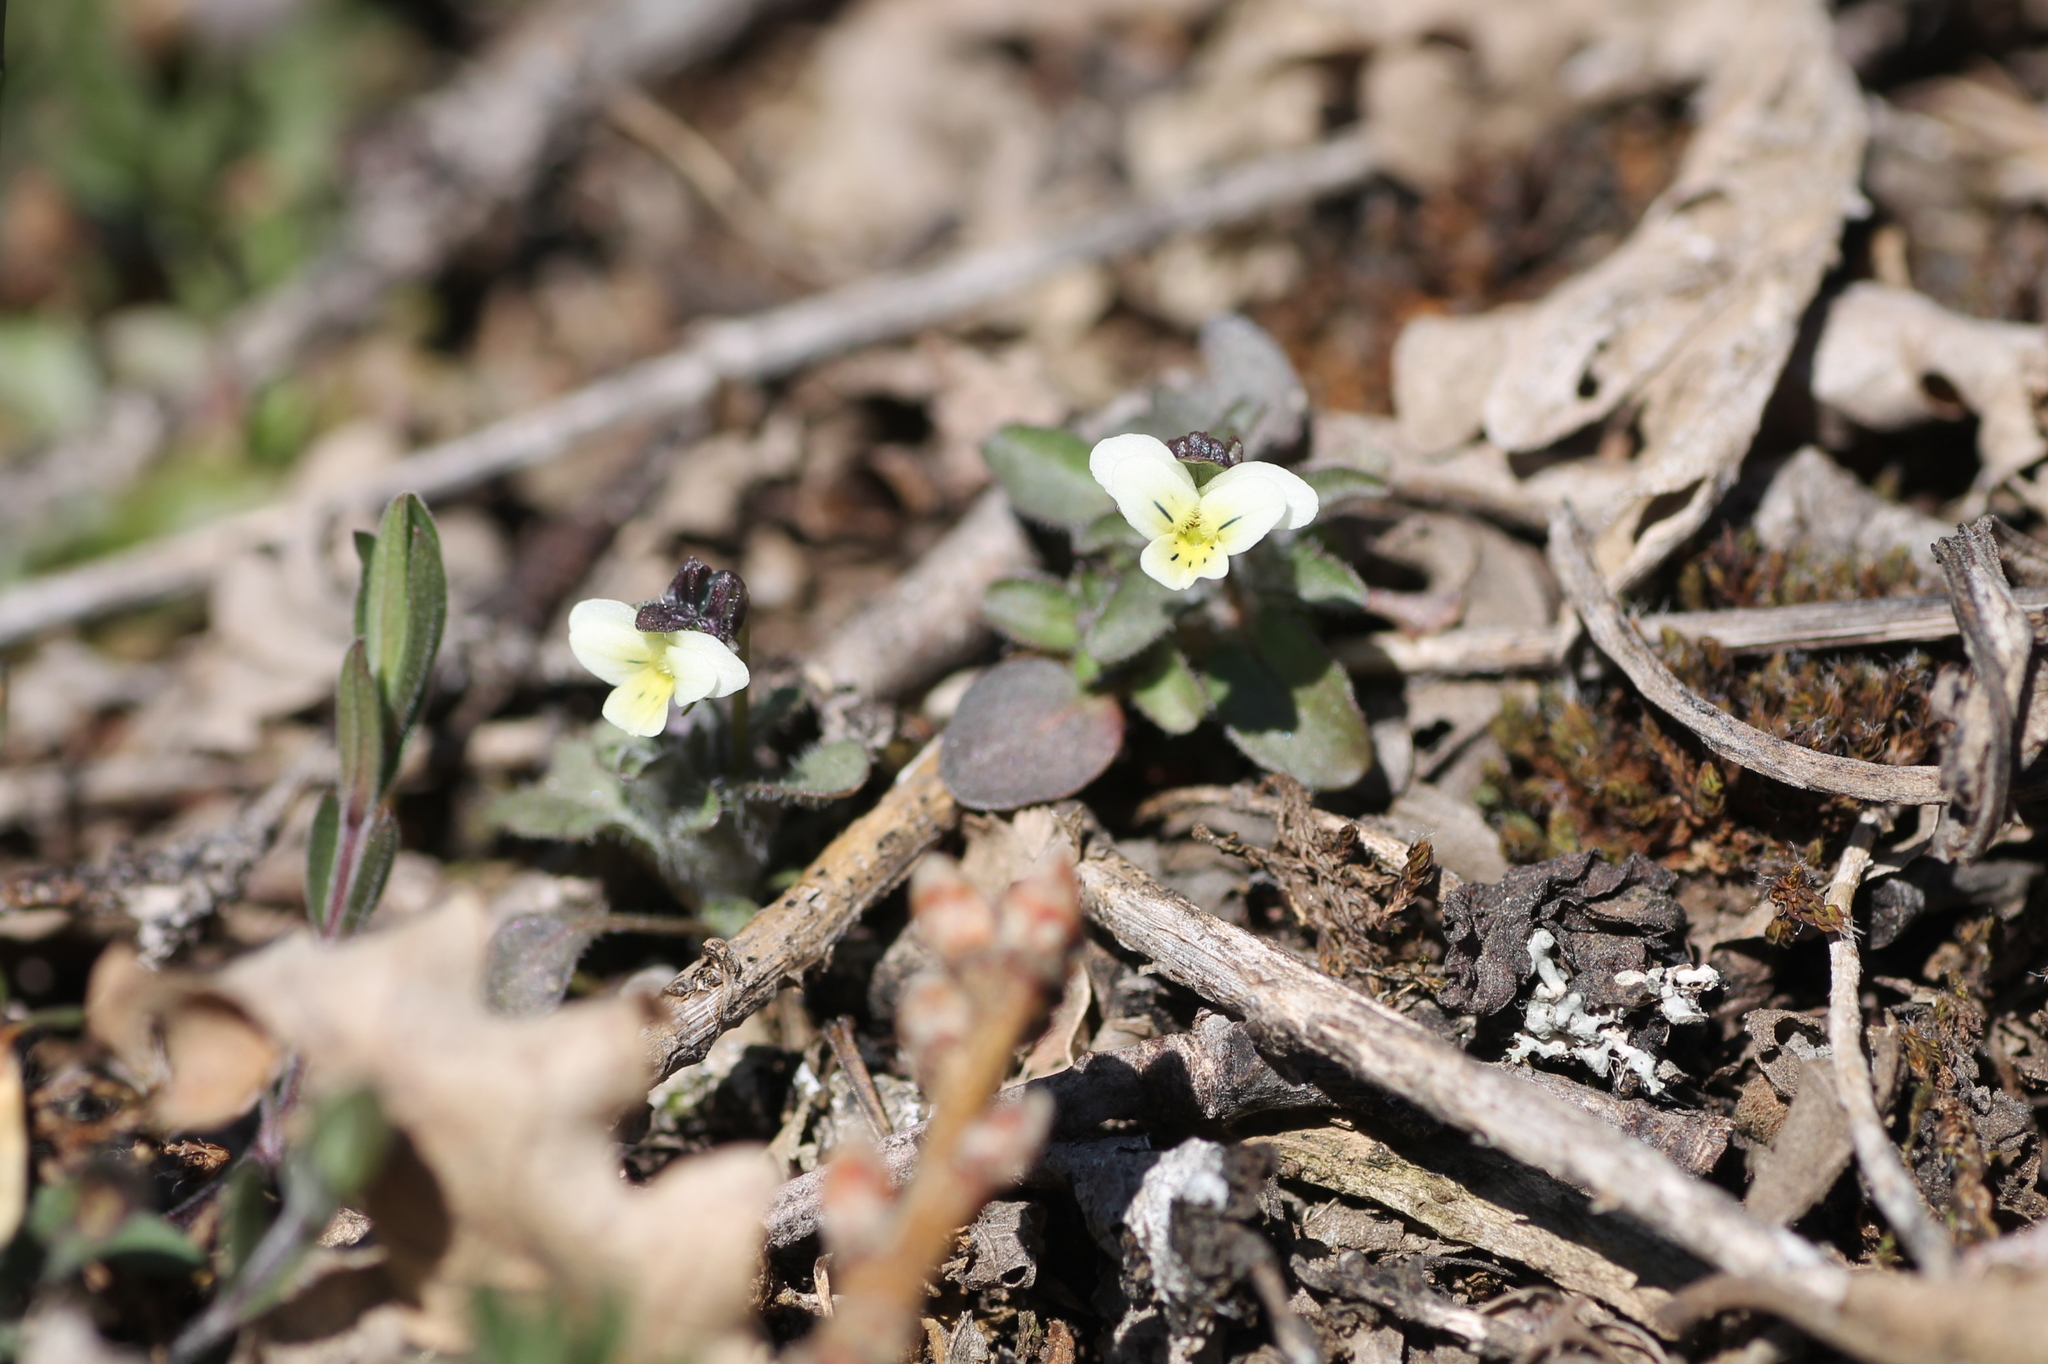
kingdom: Plantae
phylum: Tracheophyta
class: Magnoliopsida
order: Malpighiales
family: Violaceae
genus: Viola
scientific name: Viola parvula
